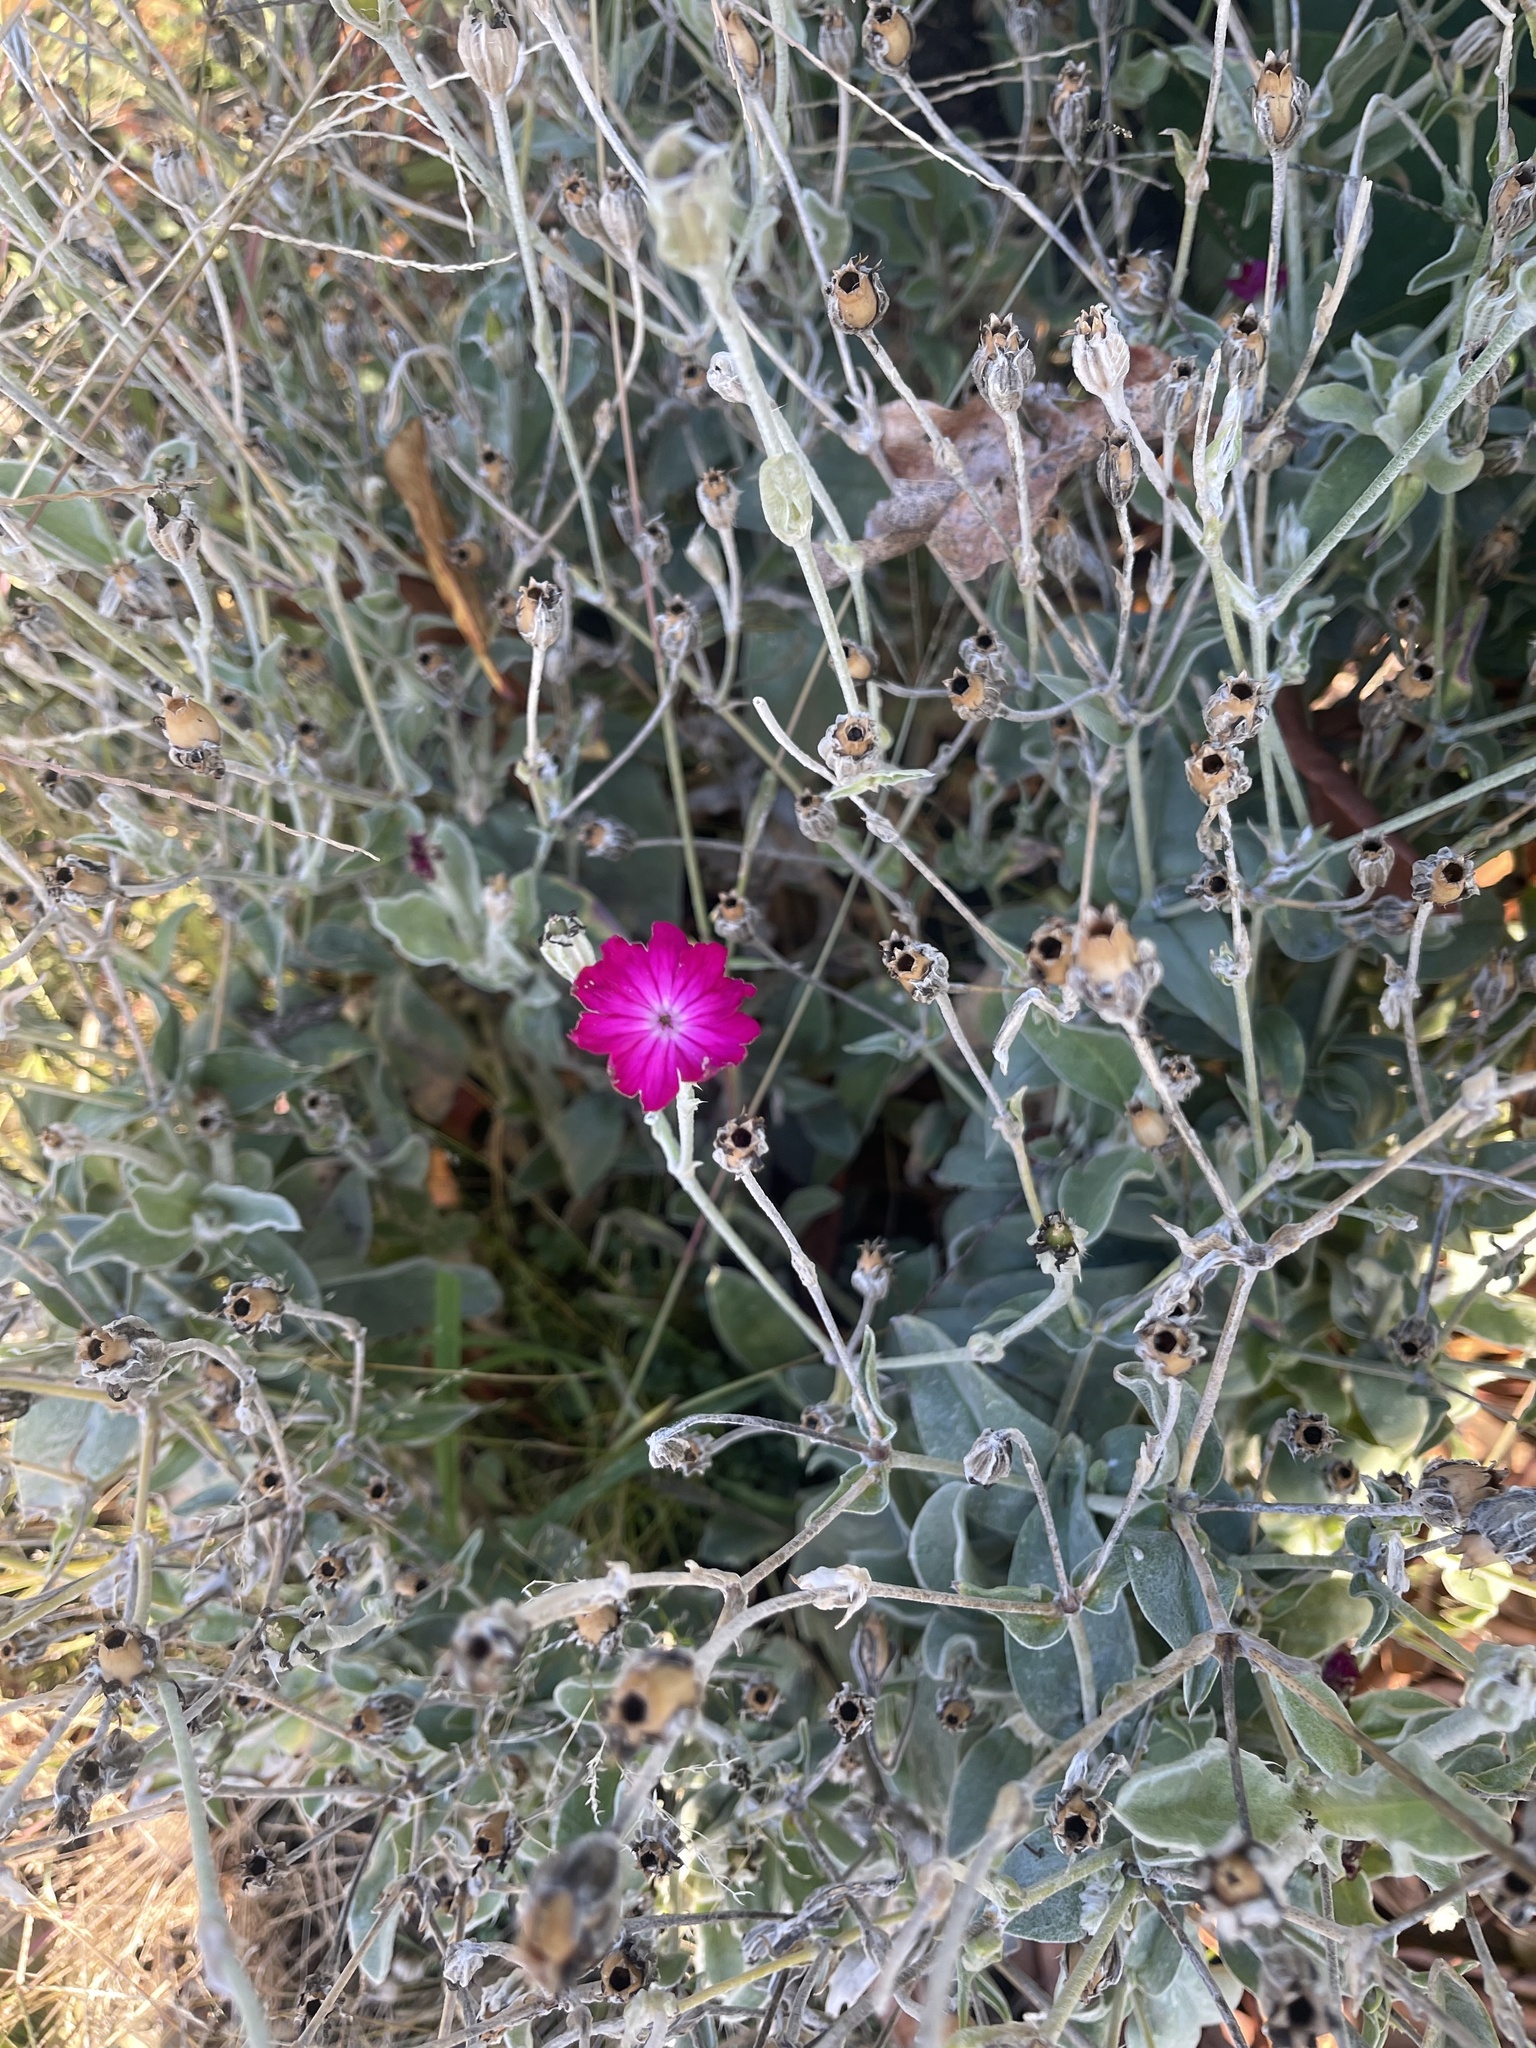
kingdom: Plantae
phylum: Tracheophyta
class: Magnoliopsida
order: Caryophyllales
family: Caryophyllaceae
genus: Silene
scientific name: Silene coronaria
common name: Rose campion
